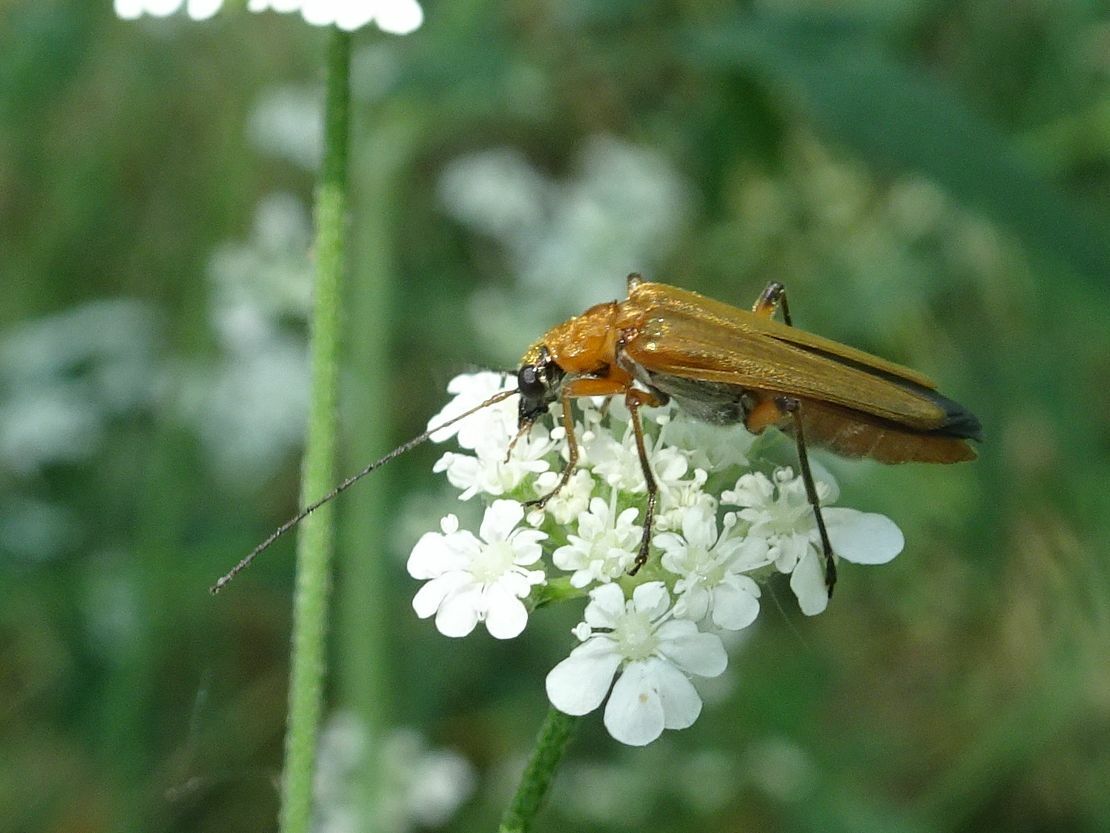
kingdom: Animalia
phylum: Arthropoda
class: Insecta
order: Coleoptera
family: Oedemeridae
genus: Oedemera
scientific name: Oedemera podagrariae
